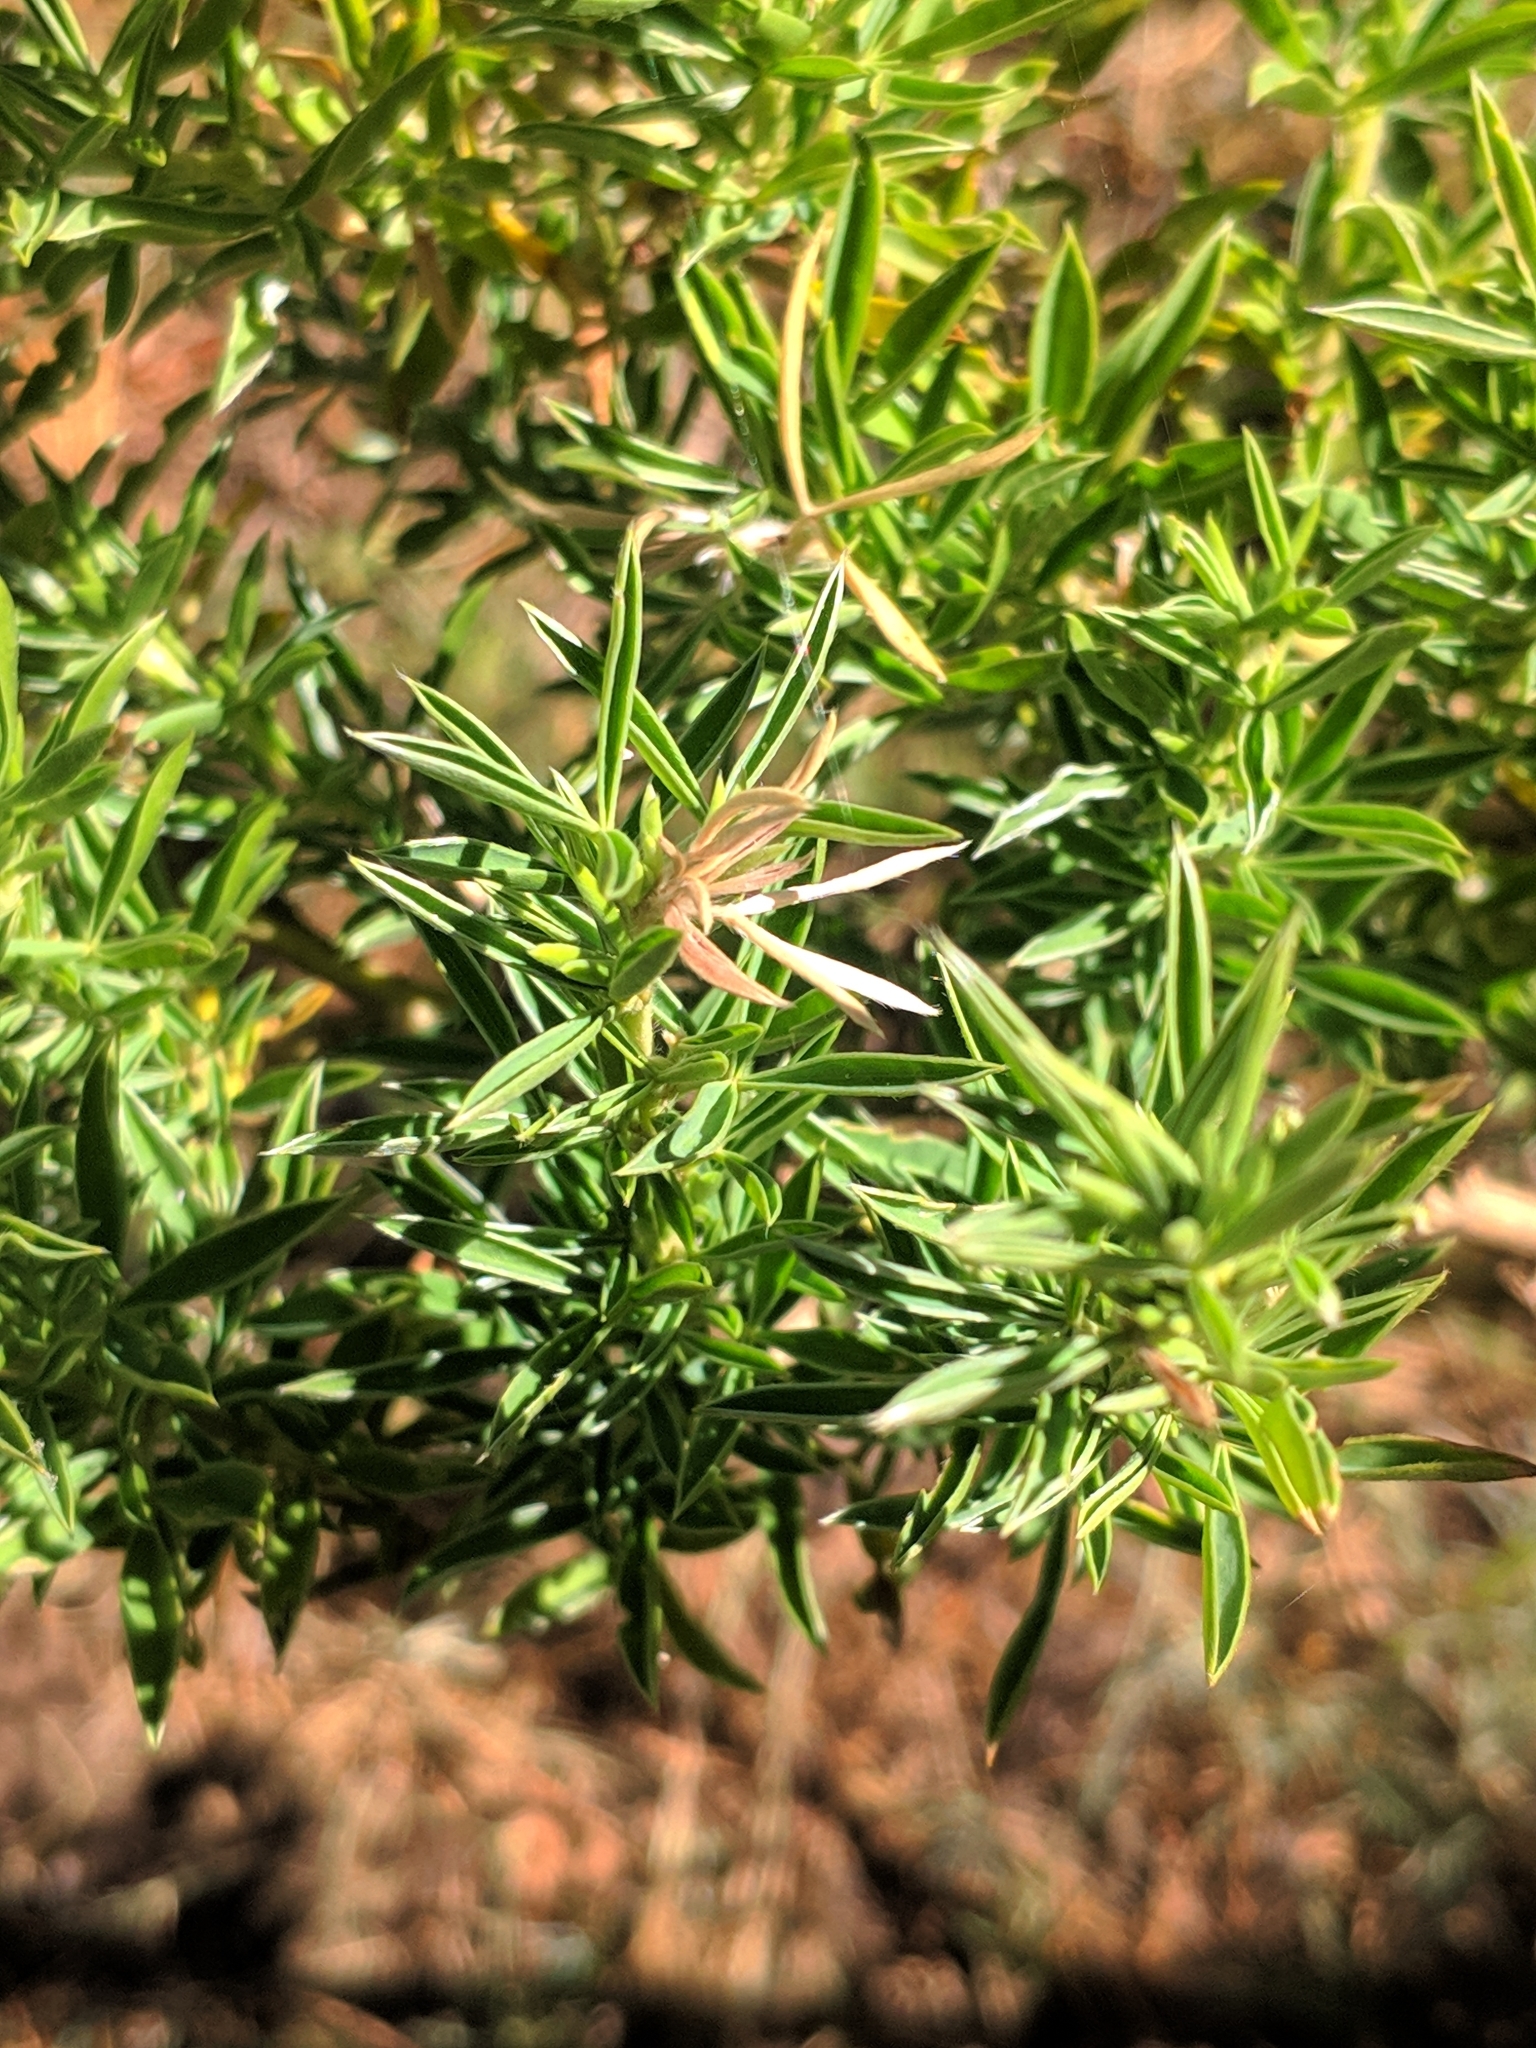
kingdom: Plantae
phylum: Tracheophyta
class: Magnoliopsida
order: Fabales
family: Fabaceae
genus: Adenocarpus
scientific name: Adenocarpus hispanicus
